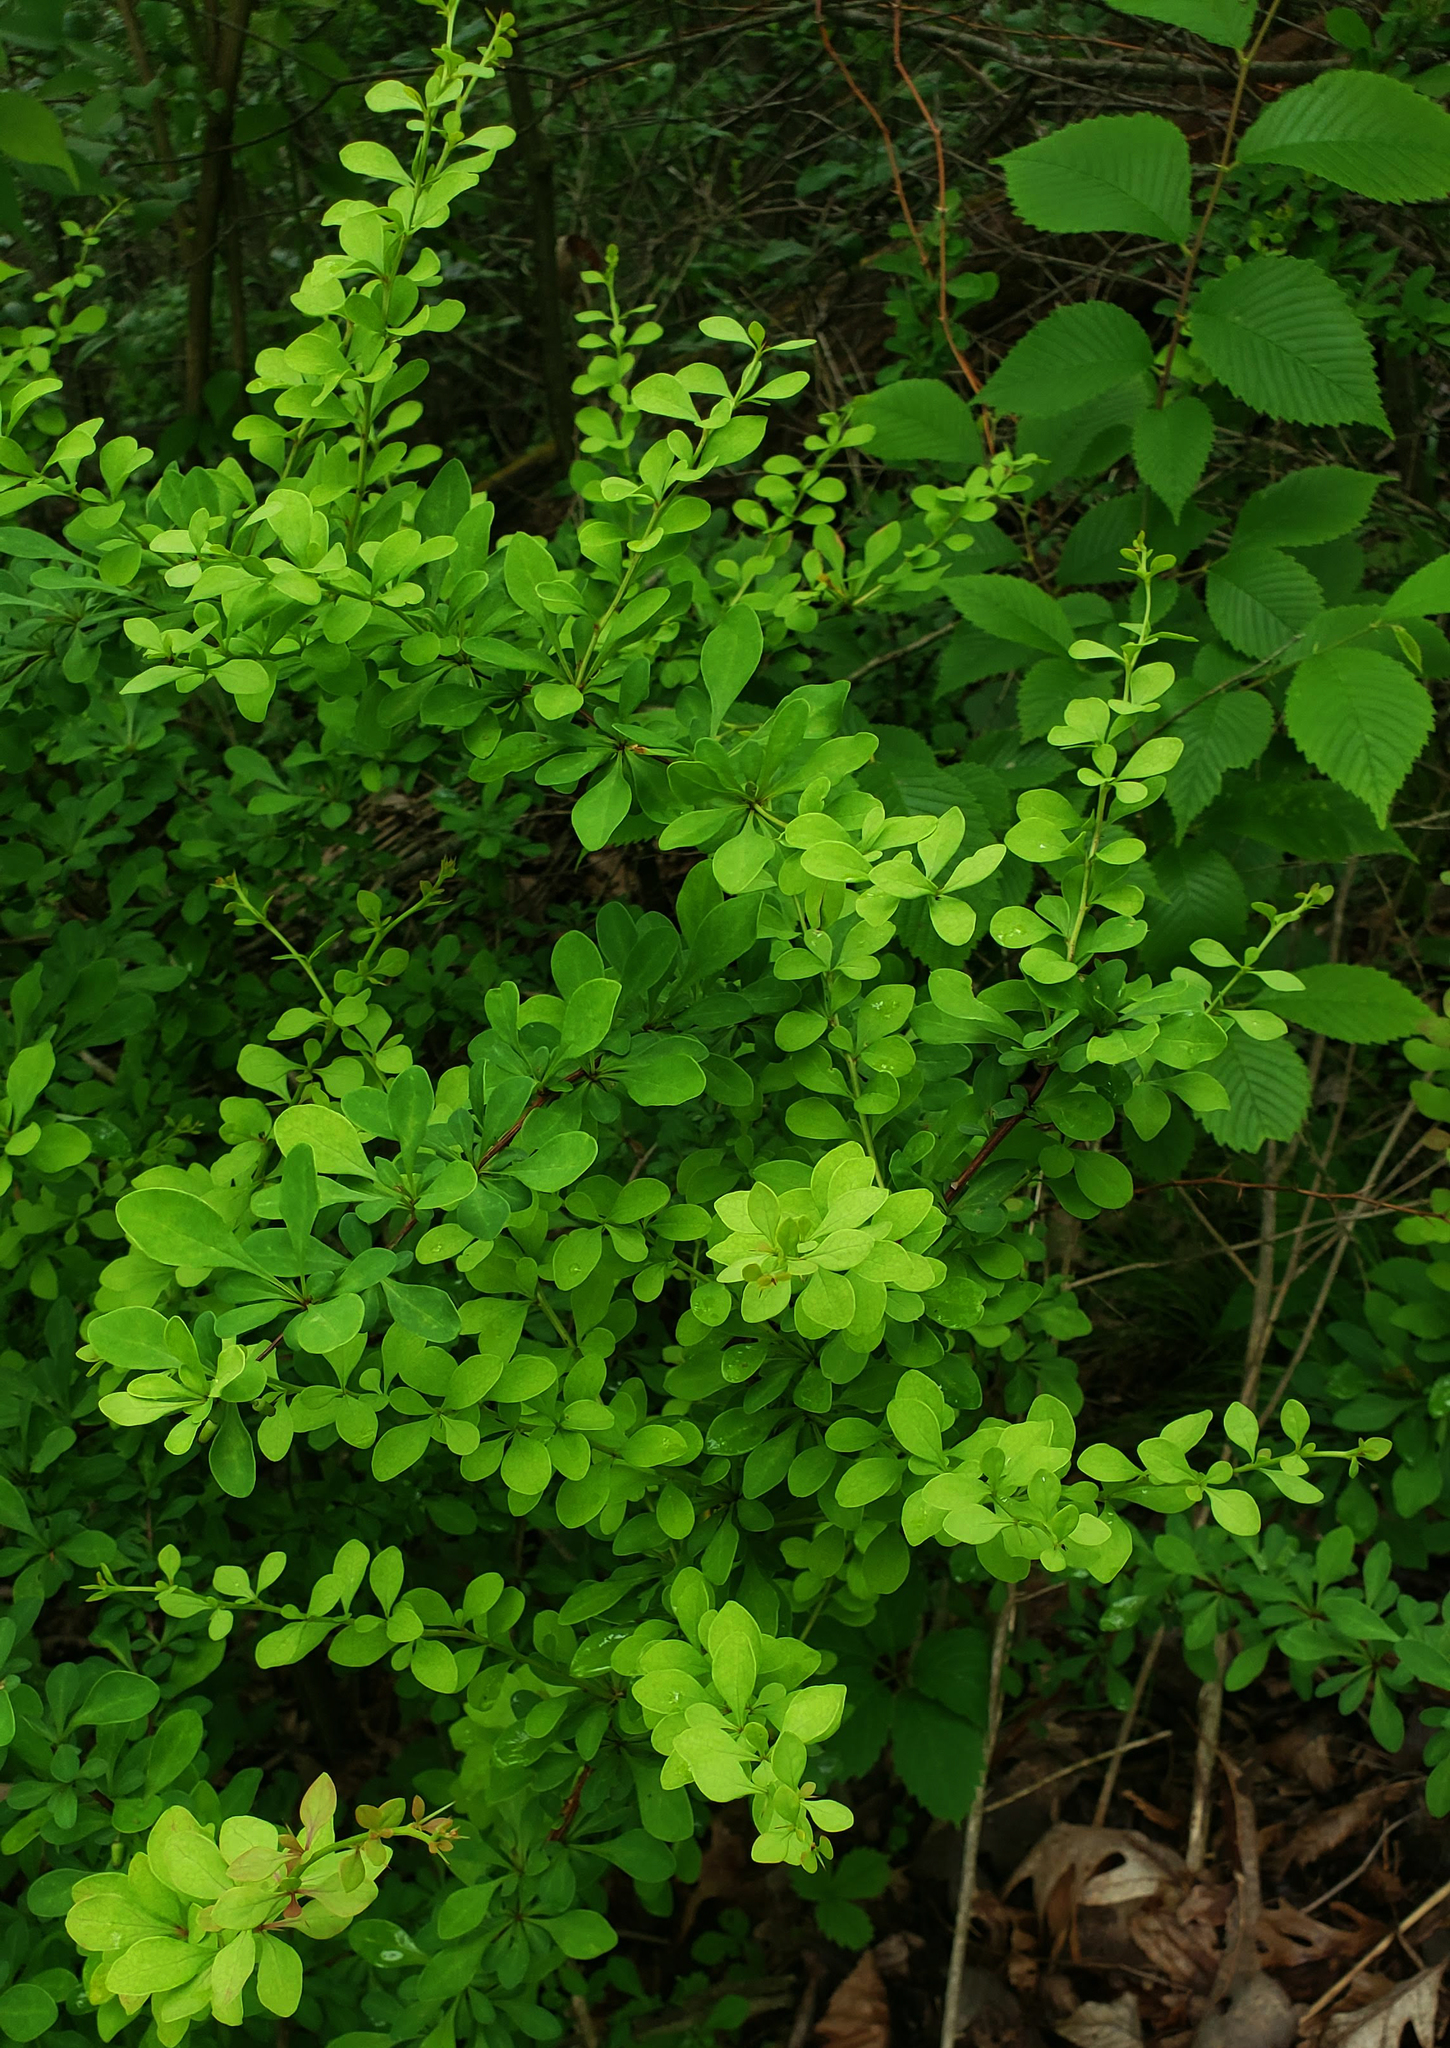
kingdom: Plantae
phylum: Tracheophyta
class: Magnoliopsida
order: Ranunculales
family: Berberidaceae
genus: Berberis
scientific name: Berberis thunbergii
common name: Japanese barberry
